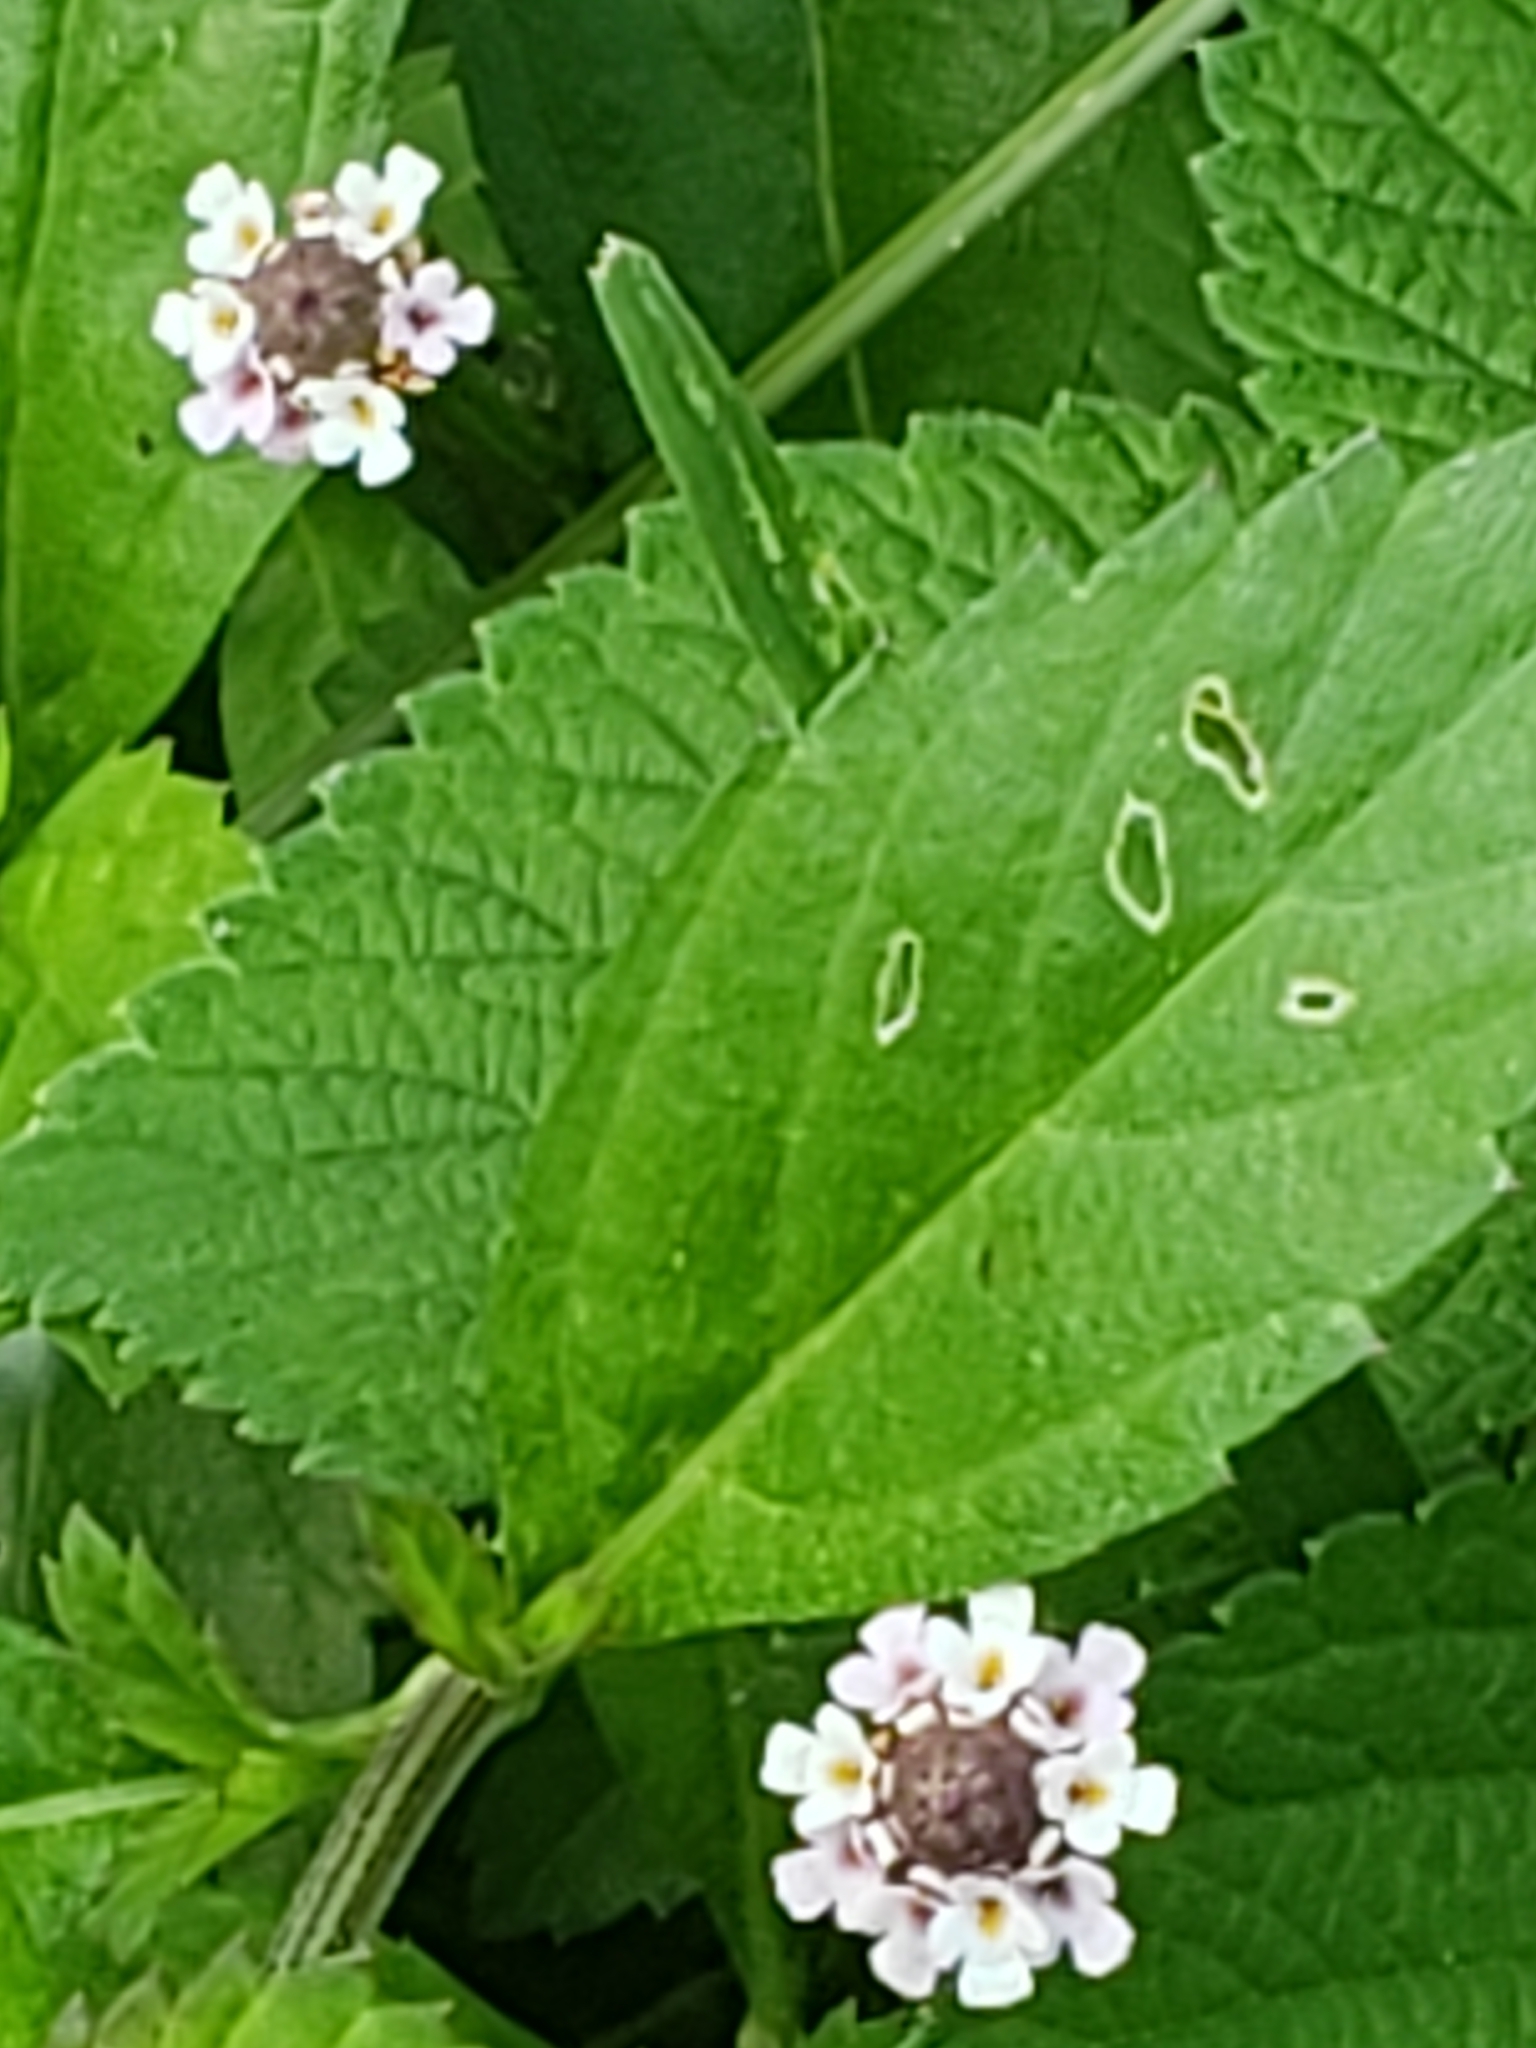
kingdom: Plantae
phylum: Tracheophyta
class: Magnoliopsida
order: Lamiales
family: Verbenaceae
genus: Phyla
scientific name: Phyla lanceolata
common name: Northern fogfruit
